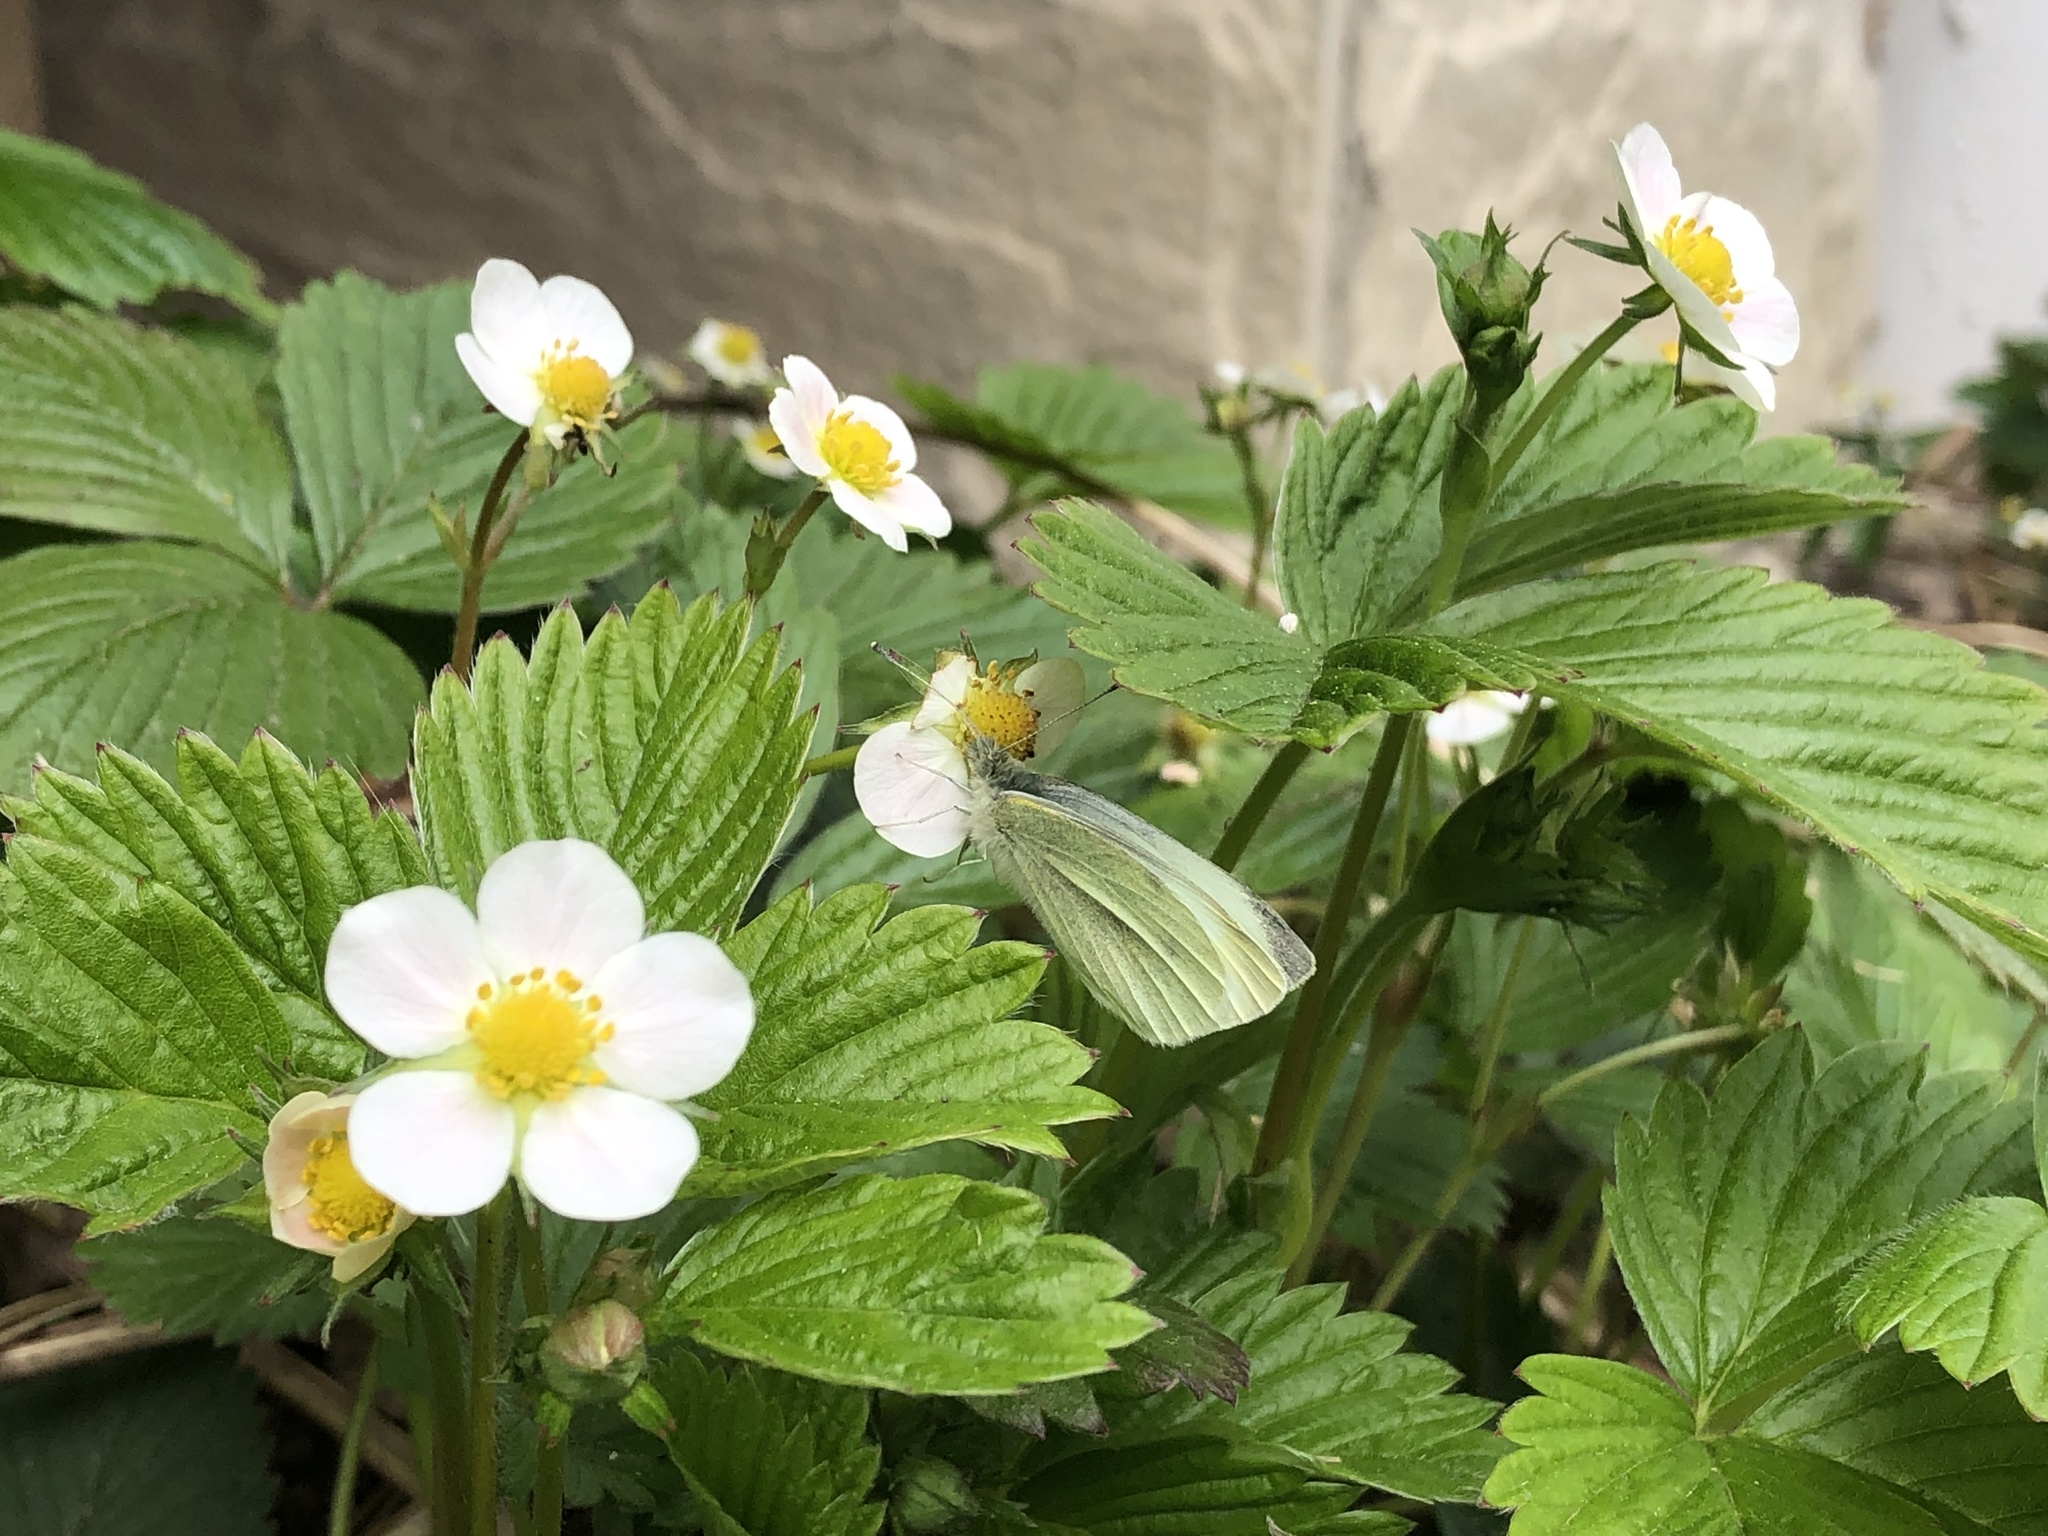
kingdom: Animalia
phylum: Arthropoda
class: Insecta
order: Lepidoptera
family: Pieridae
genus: Pieris
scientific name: Pieris rapae
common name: Small white
